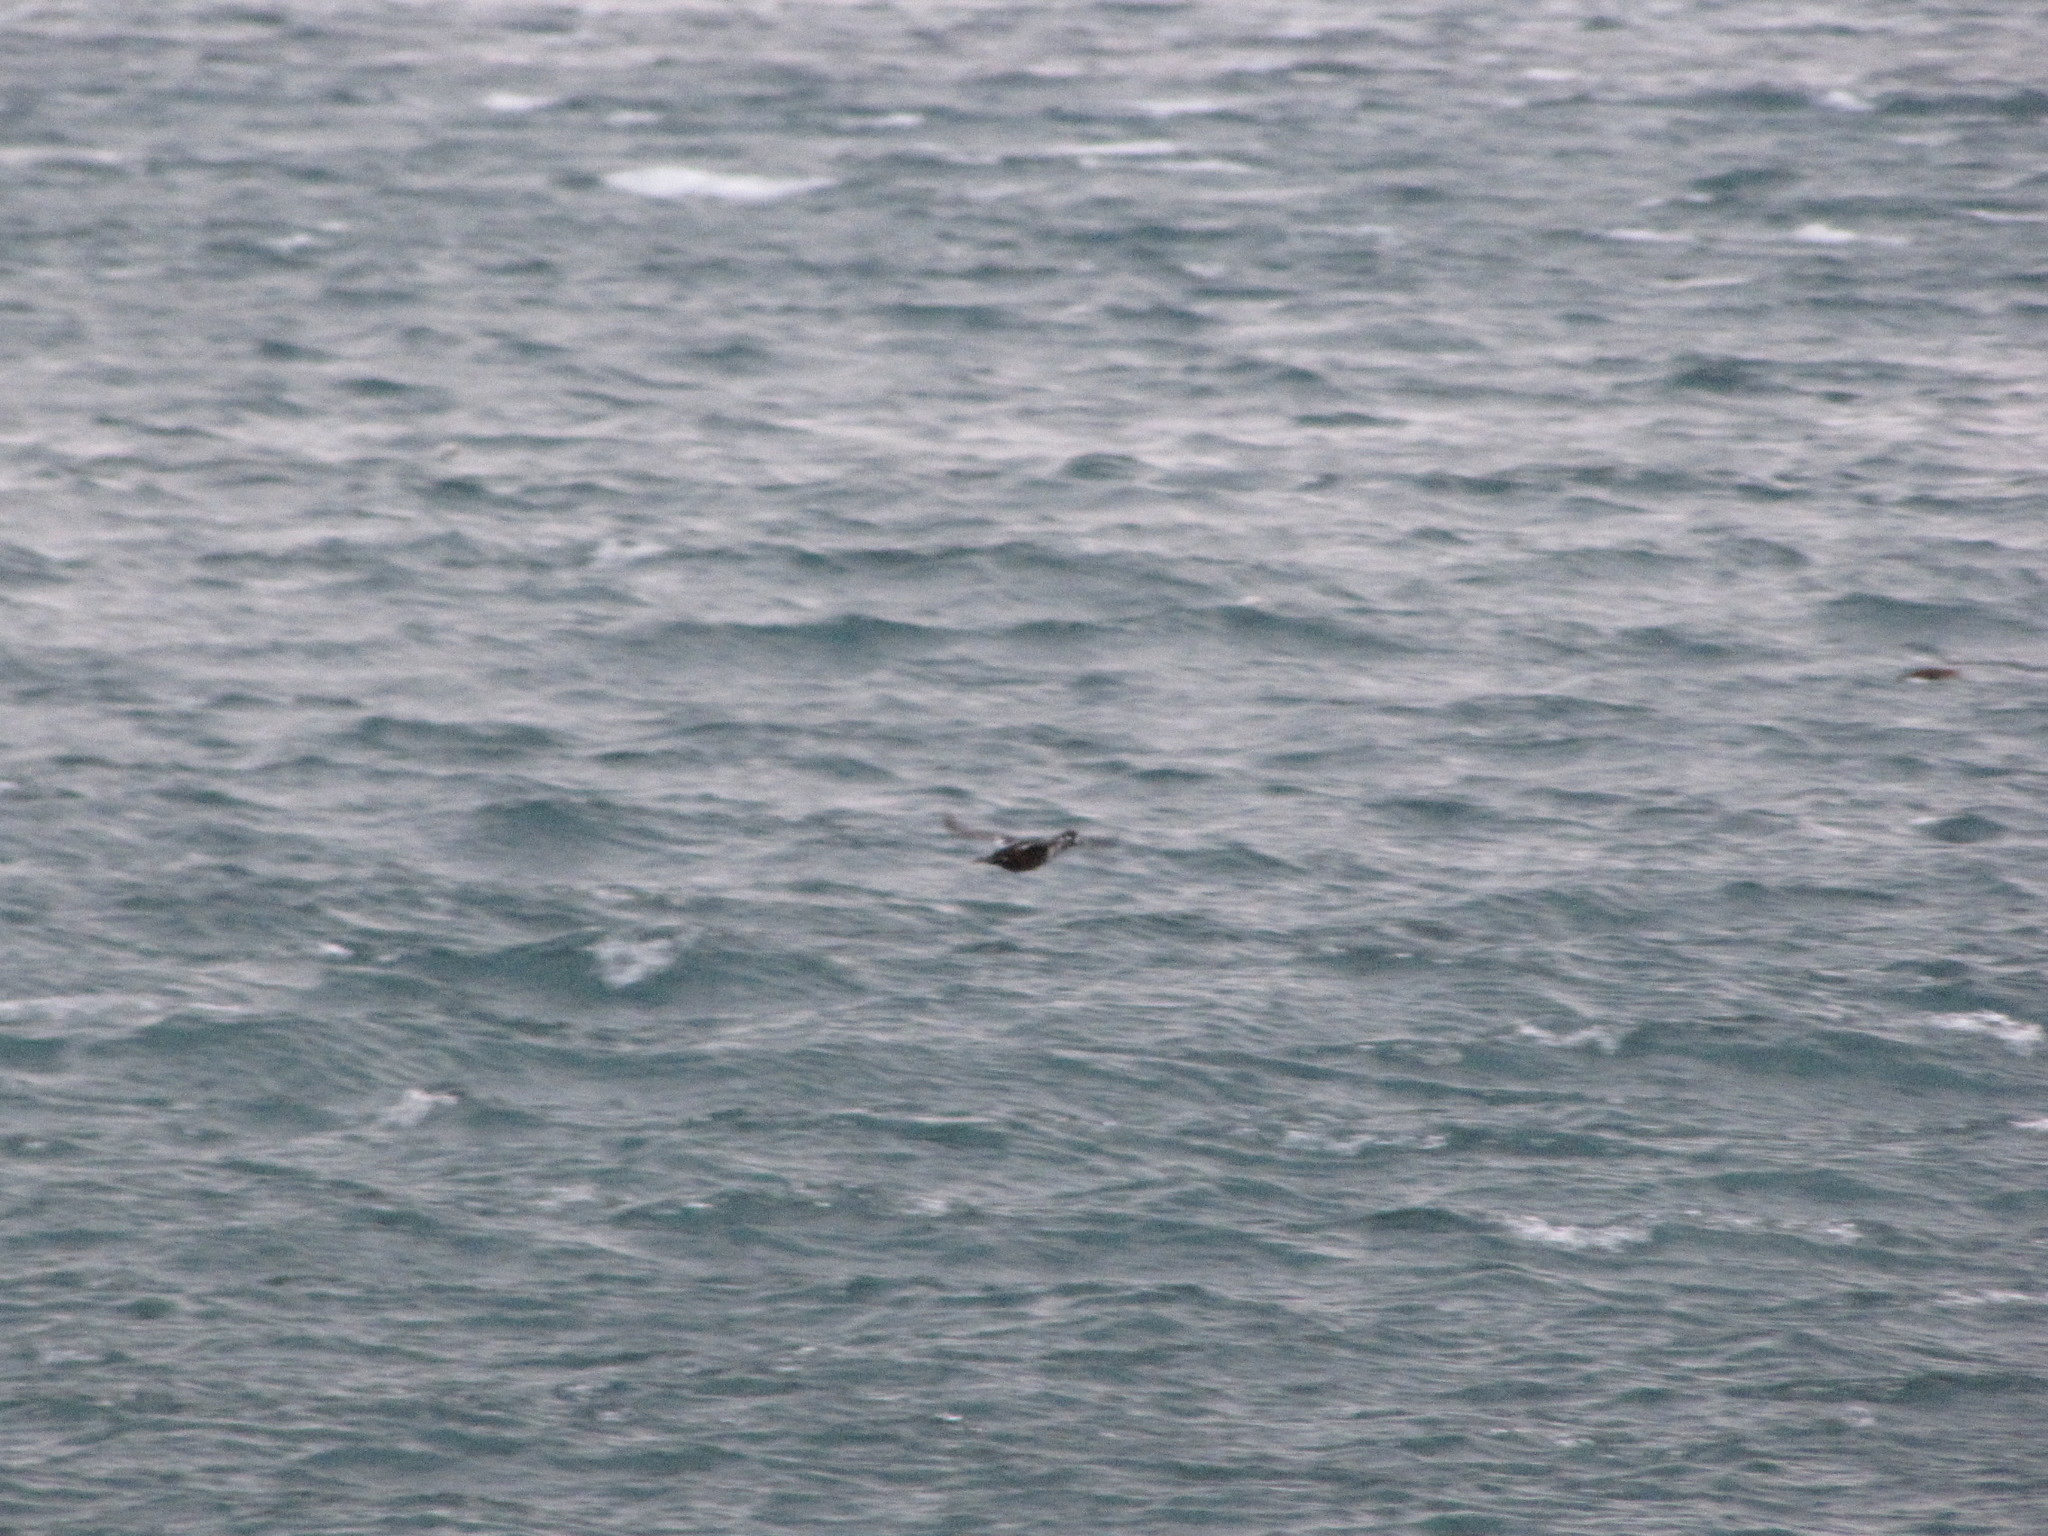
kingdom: Animalia
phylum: Chordata
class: Aves
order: Anseriformes
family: Anatidae
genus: Histrionicus
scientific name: Histrionicus histrionicus
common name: Harlequin duck
